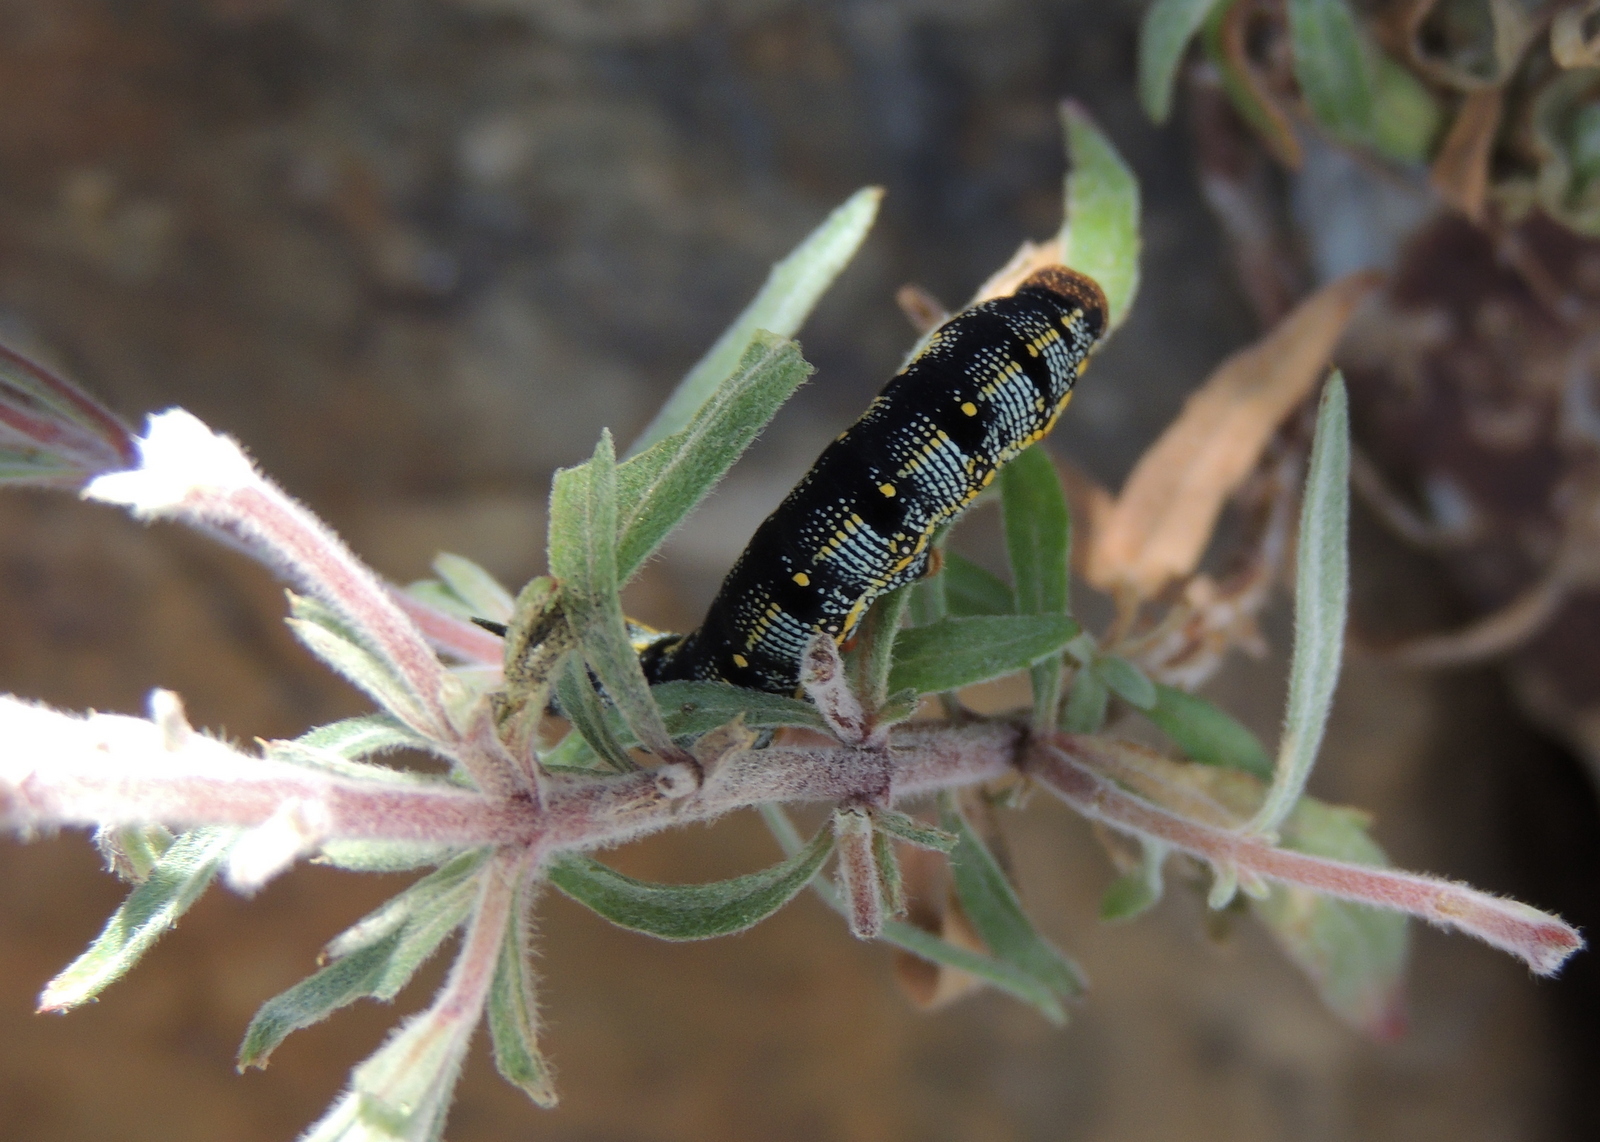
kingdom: Animalia
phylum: Arthropoda
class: Insecta
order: Lepidoptera
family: Sphingidae
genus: Hyles
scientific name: Hyles lineata
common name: White-lined sphinx
